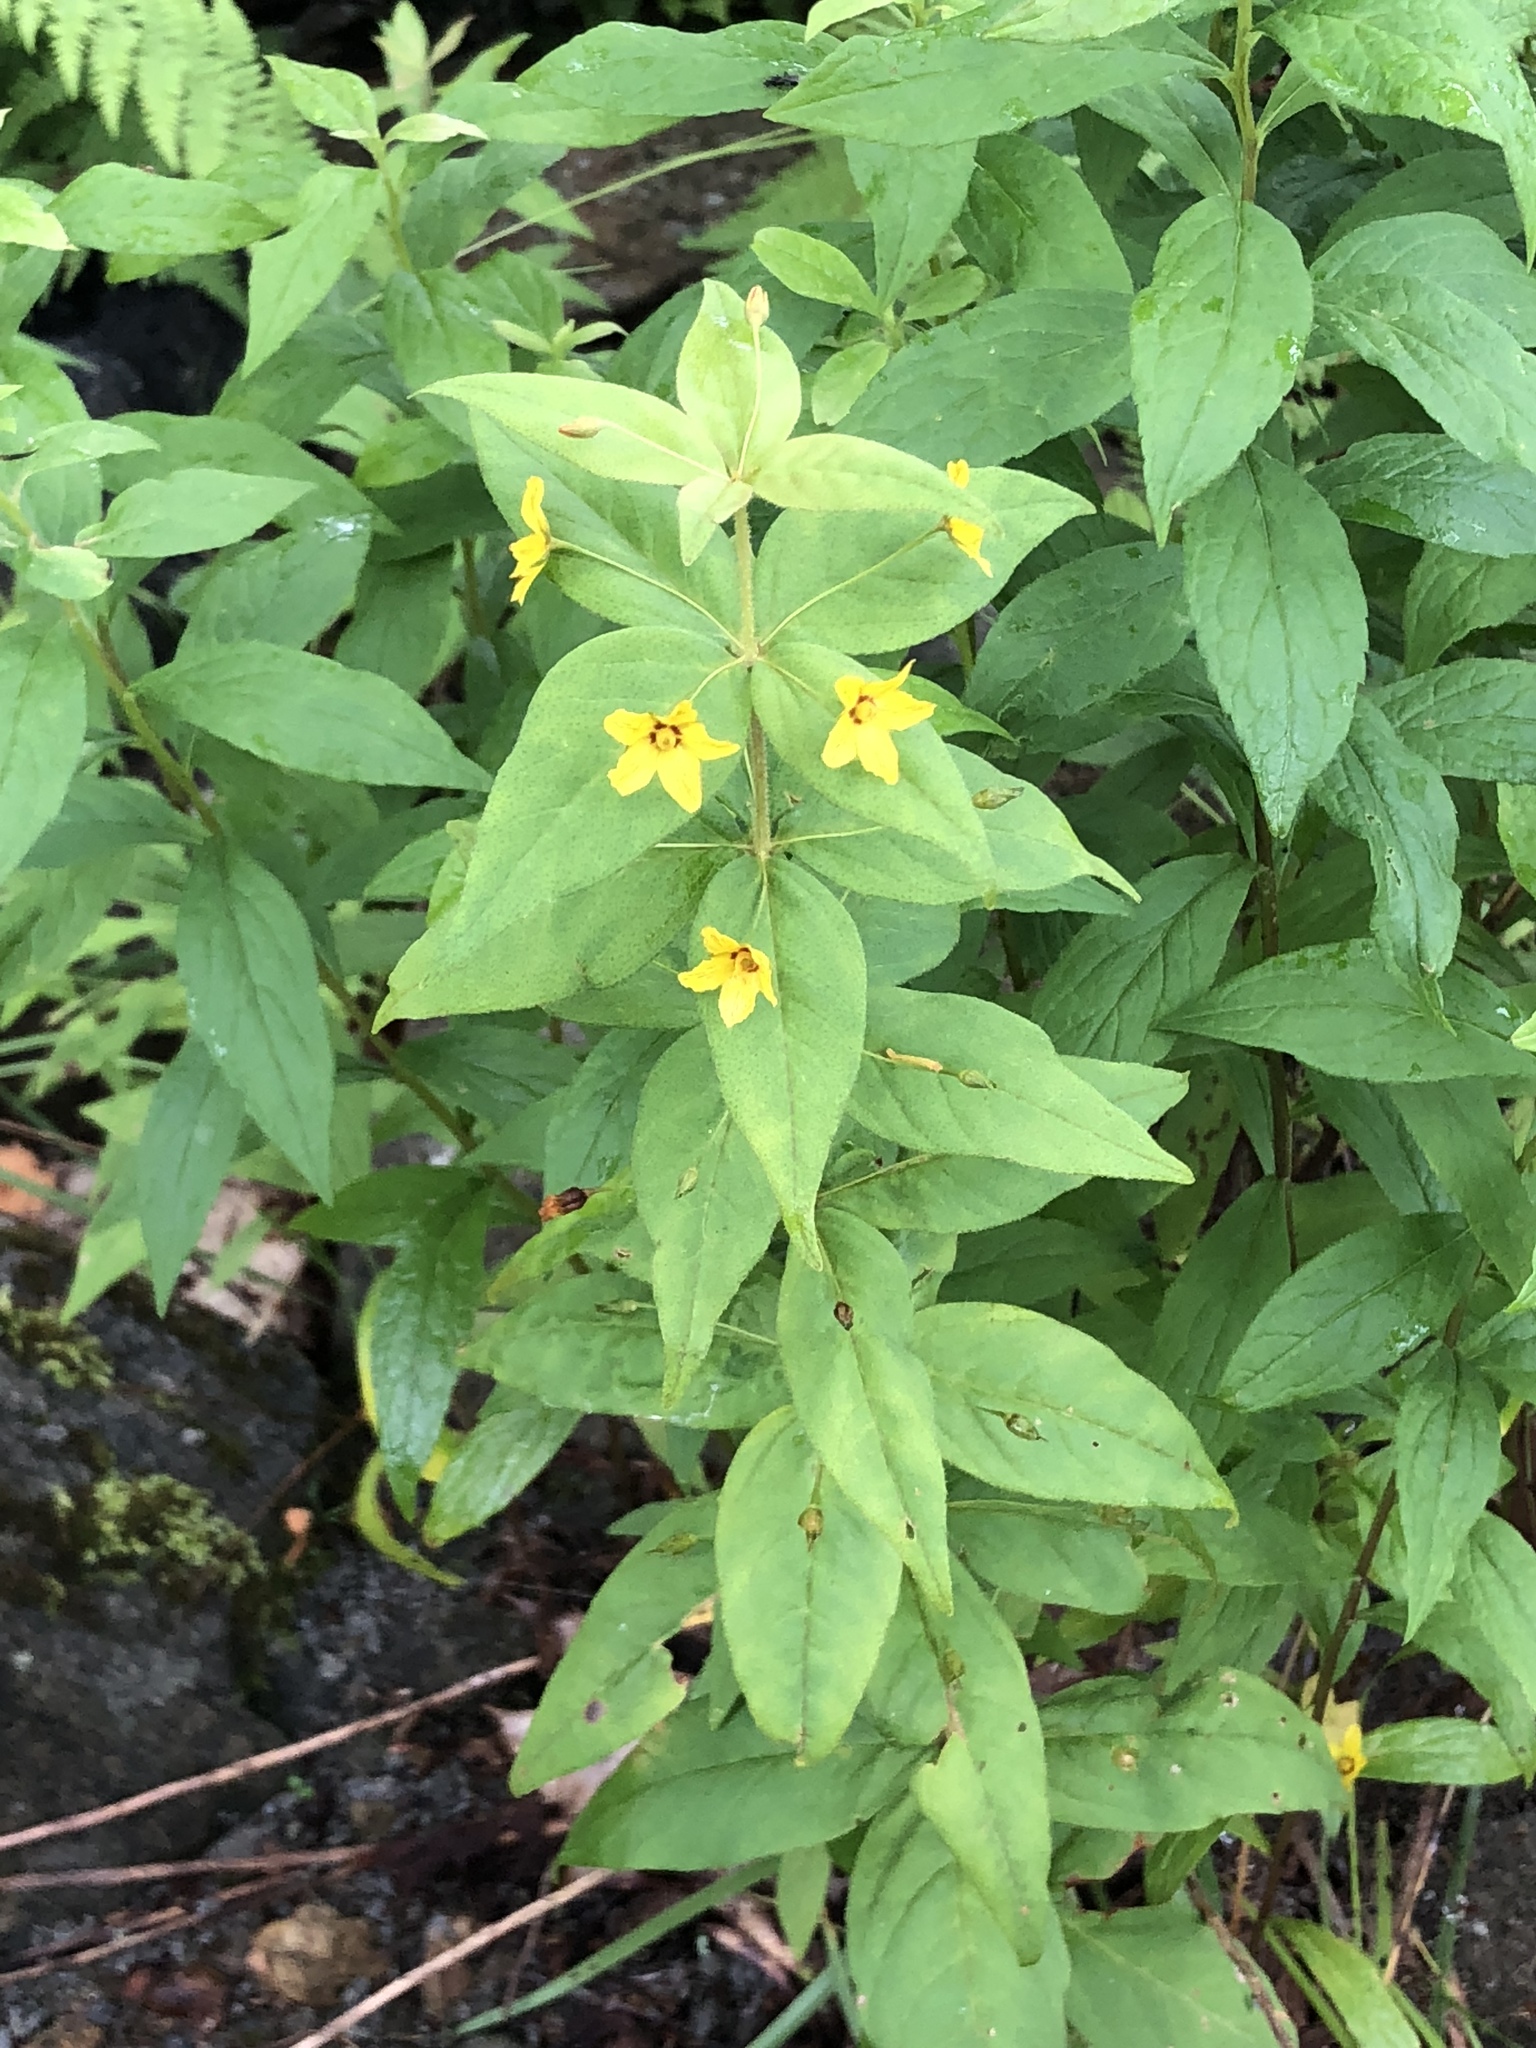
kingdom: Plantae
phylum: Tracheophyta
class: Magnoliopsida
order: Ericales
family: Primulaceae
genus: Lysimachia
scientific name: Lysimachia quadrifolia
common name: Whorled loosestrife
